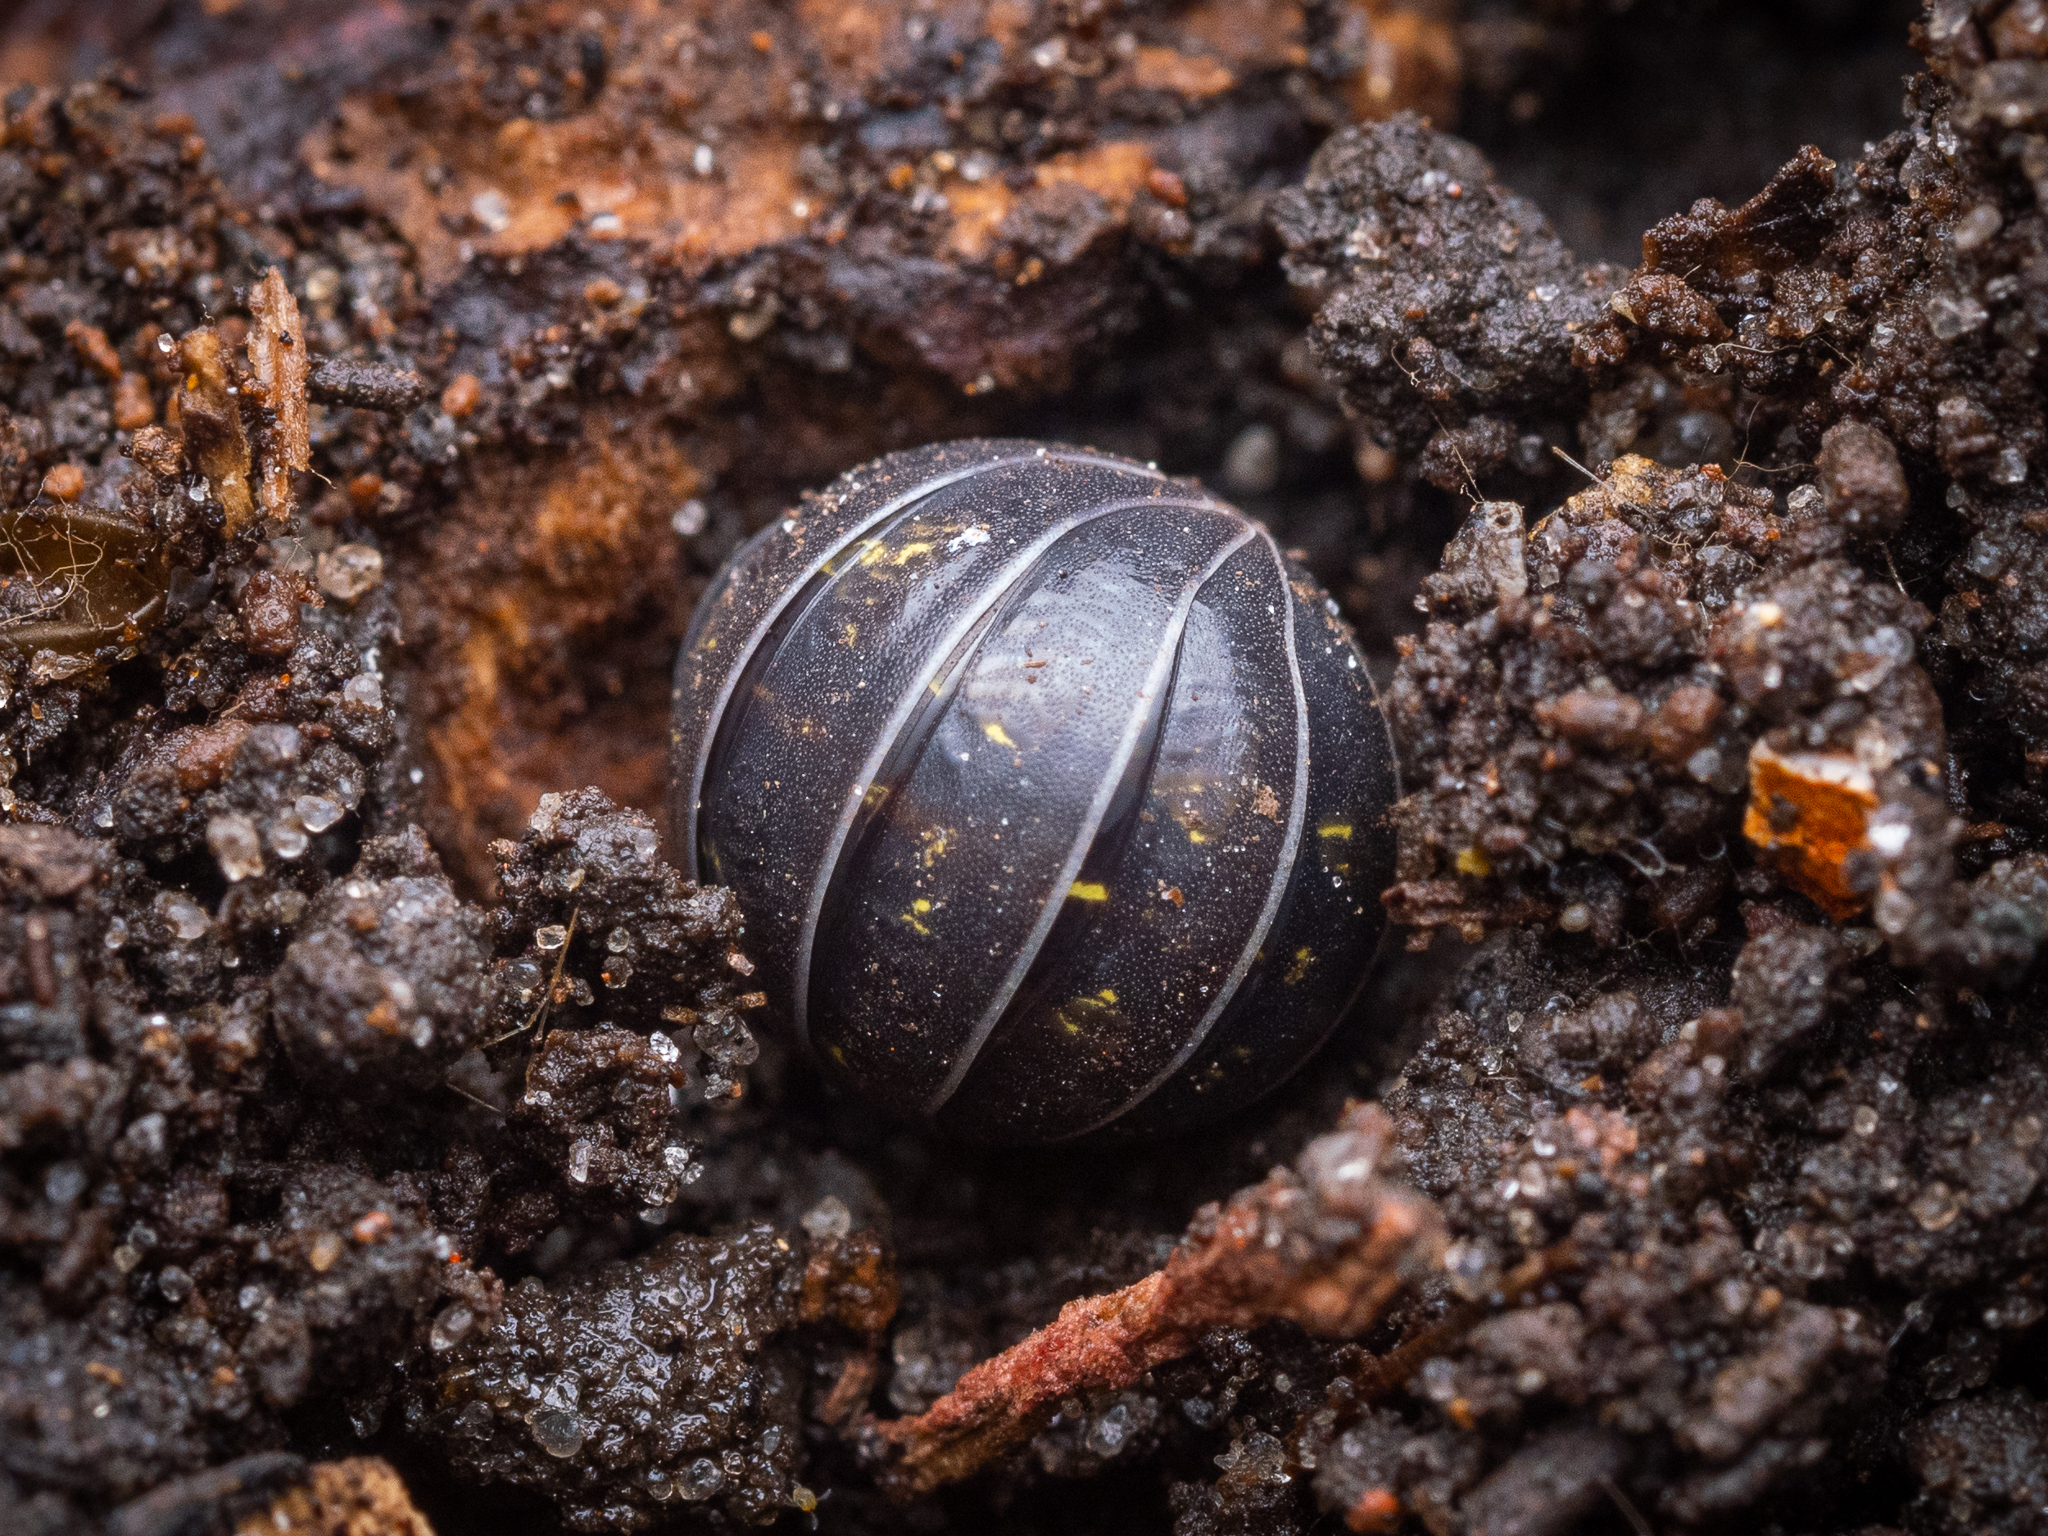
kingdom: Animalia
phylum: Arthropoda
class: Malacostraca
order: Isopoda
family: Armadillidiidae
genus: Armadillidium
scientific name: Armadillidium vulgare
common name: Common pill woodlouse
